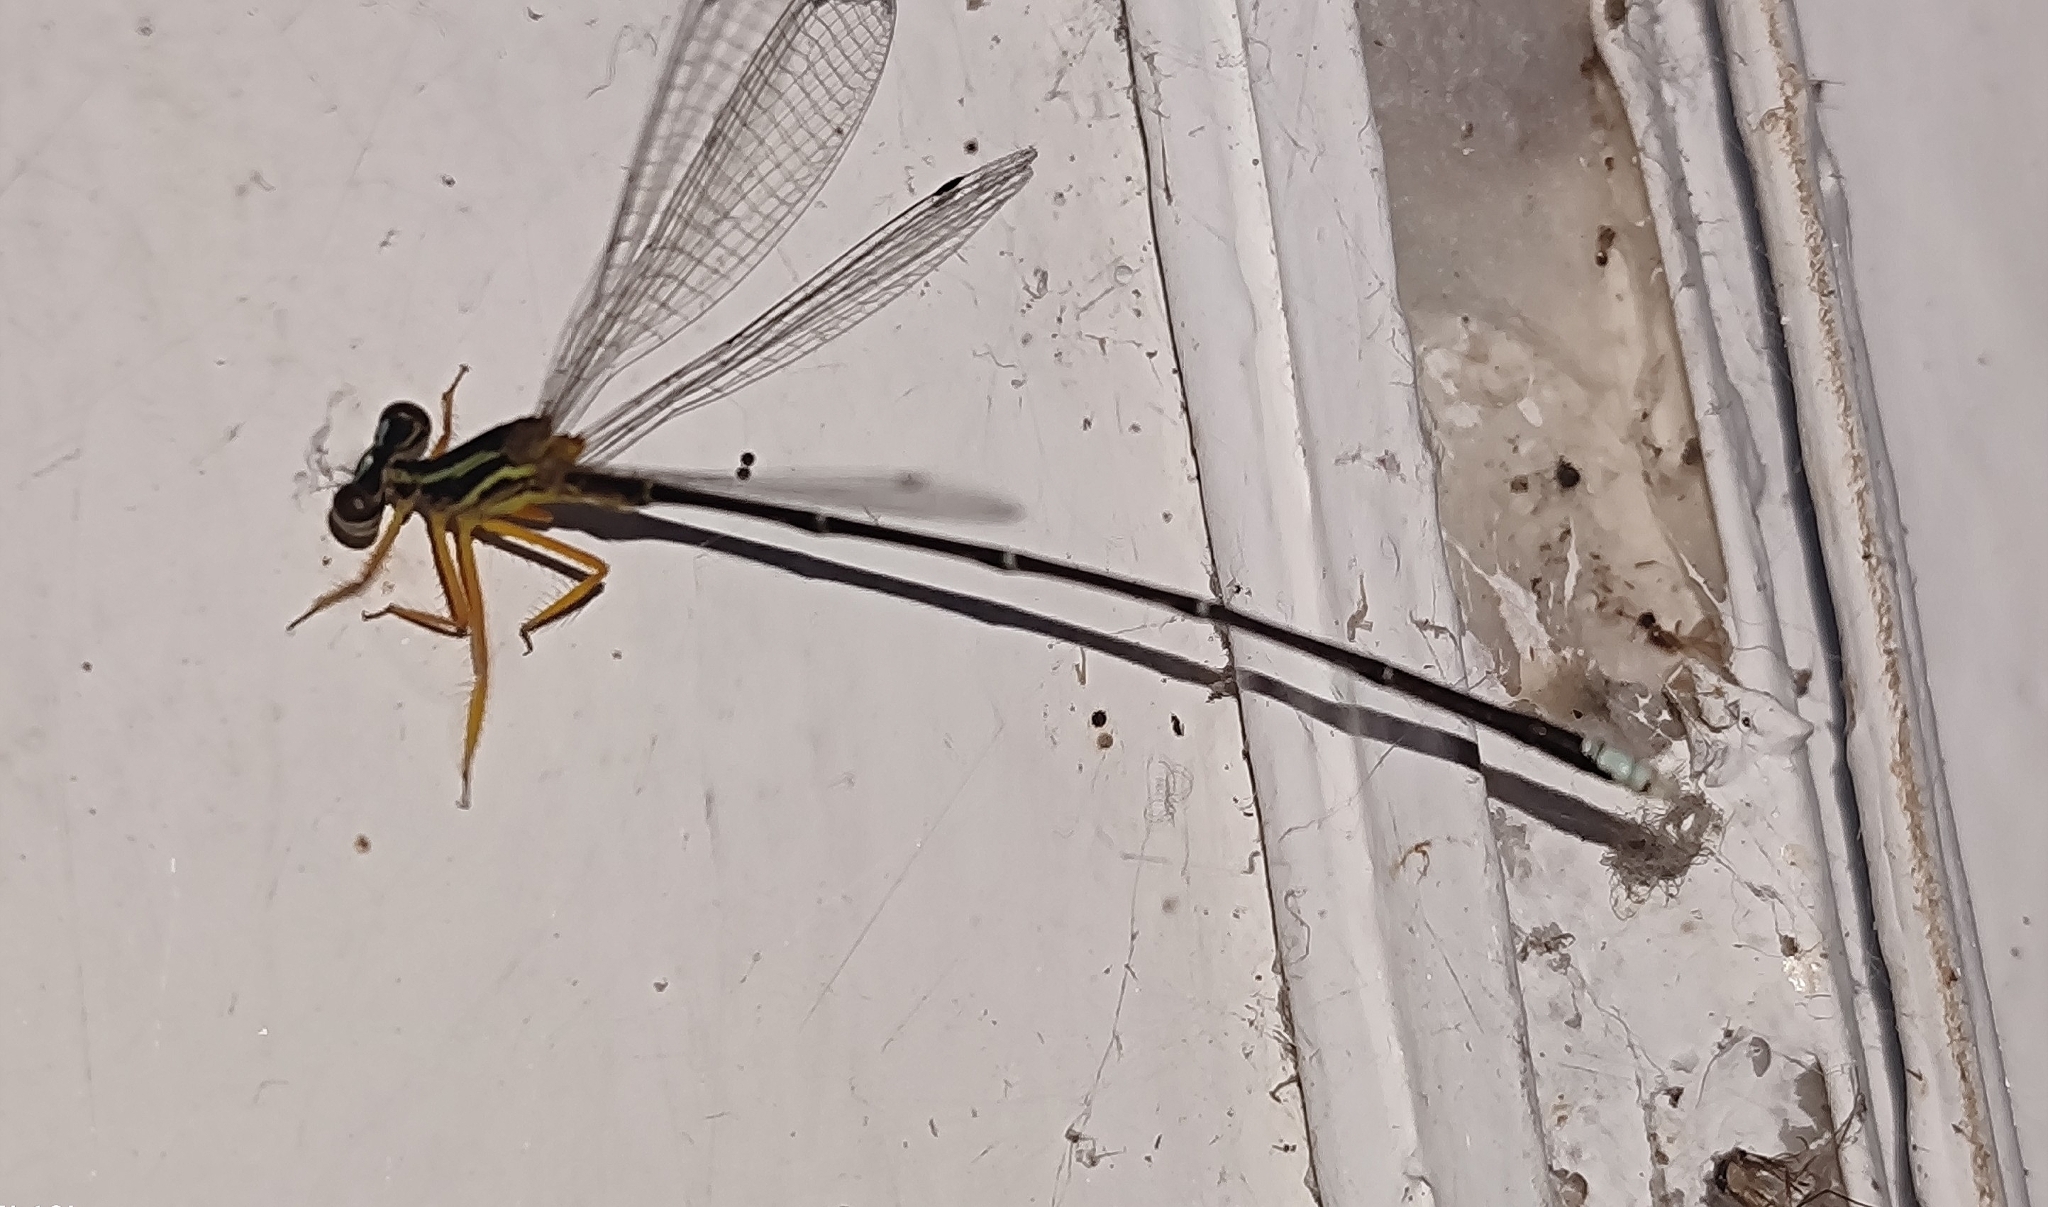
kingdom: Animalia
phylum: Arthropoda
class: Insecta
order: Odonata
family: Platycnemididae
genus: Copera
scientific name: Copera marginipes
